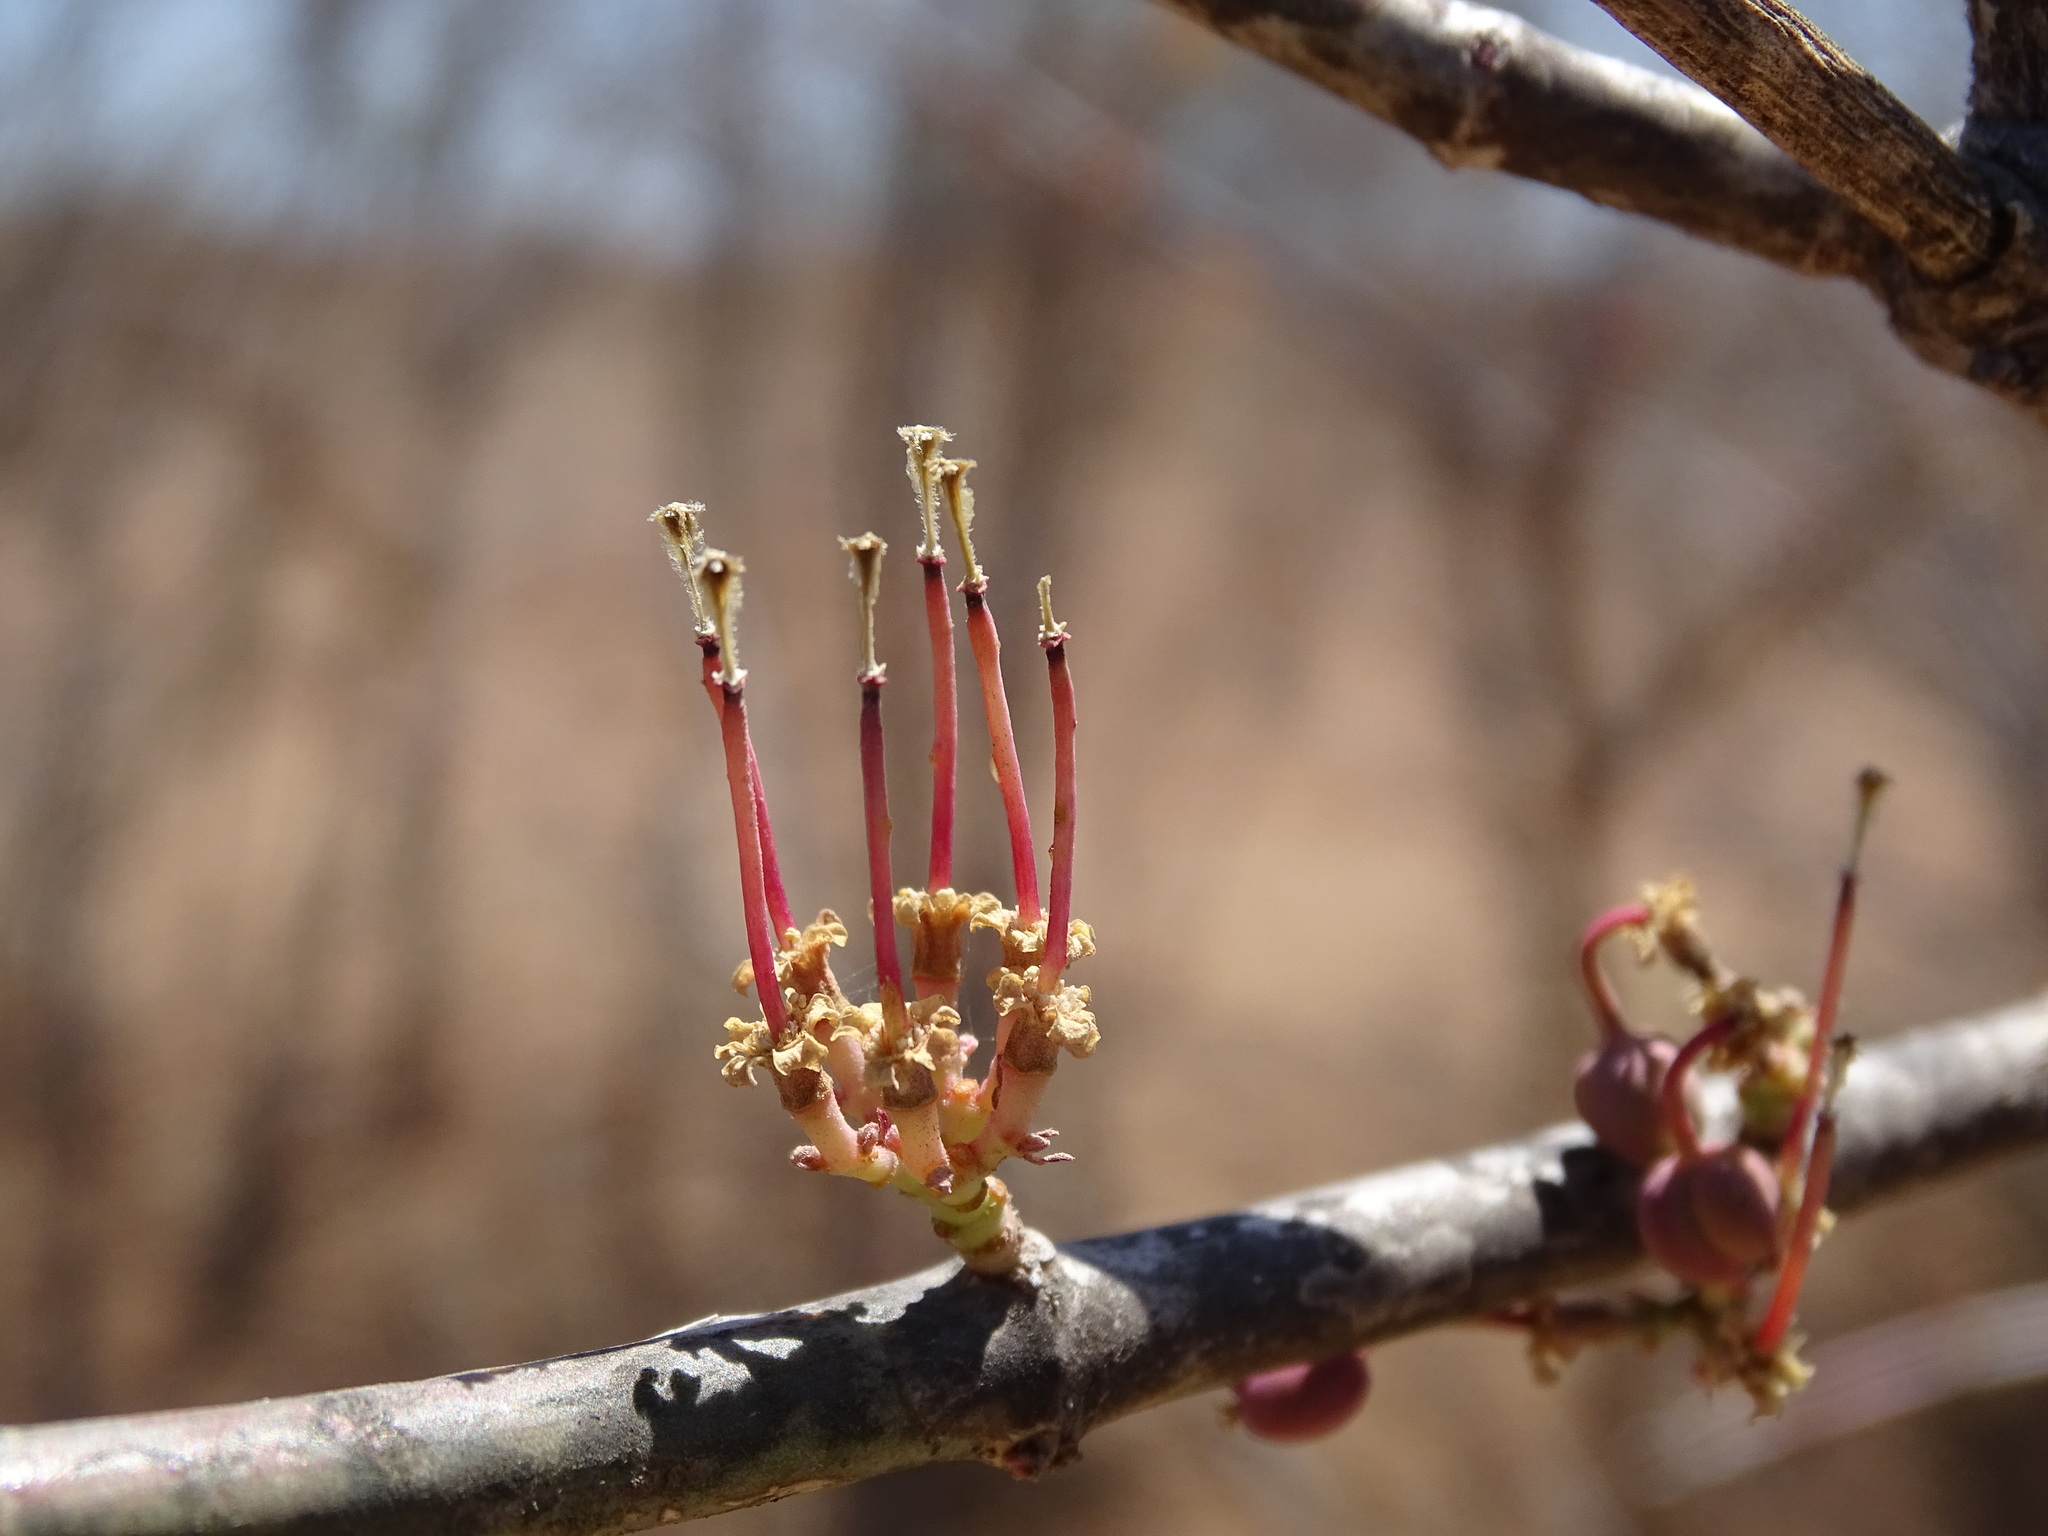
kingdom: Plantae
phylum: Tracheophyta
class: Magnoliopsida
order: Malpighiales
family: Euphorbiaceae
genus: Euphorbia
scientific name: Euphorbia cymosa
